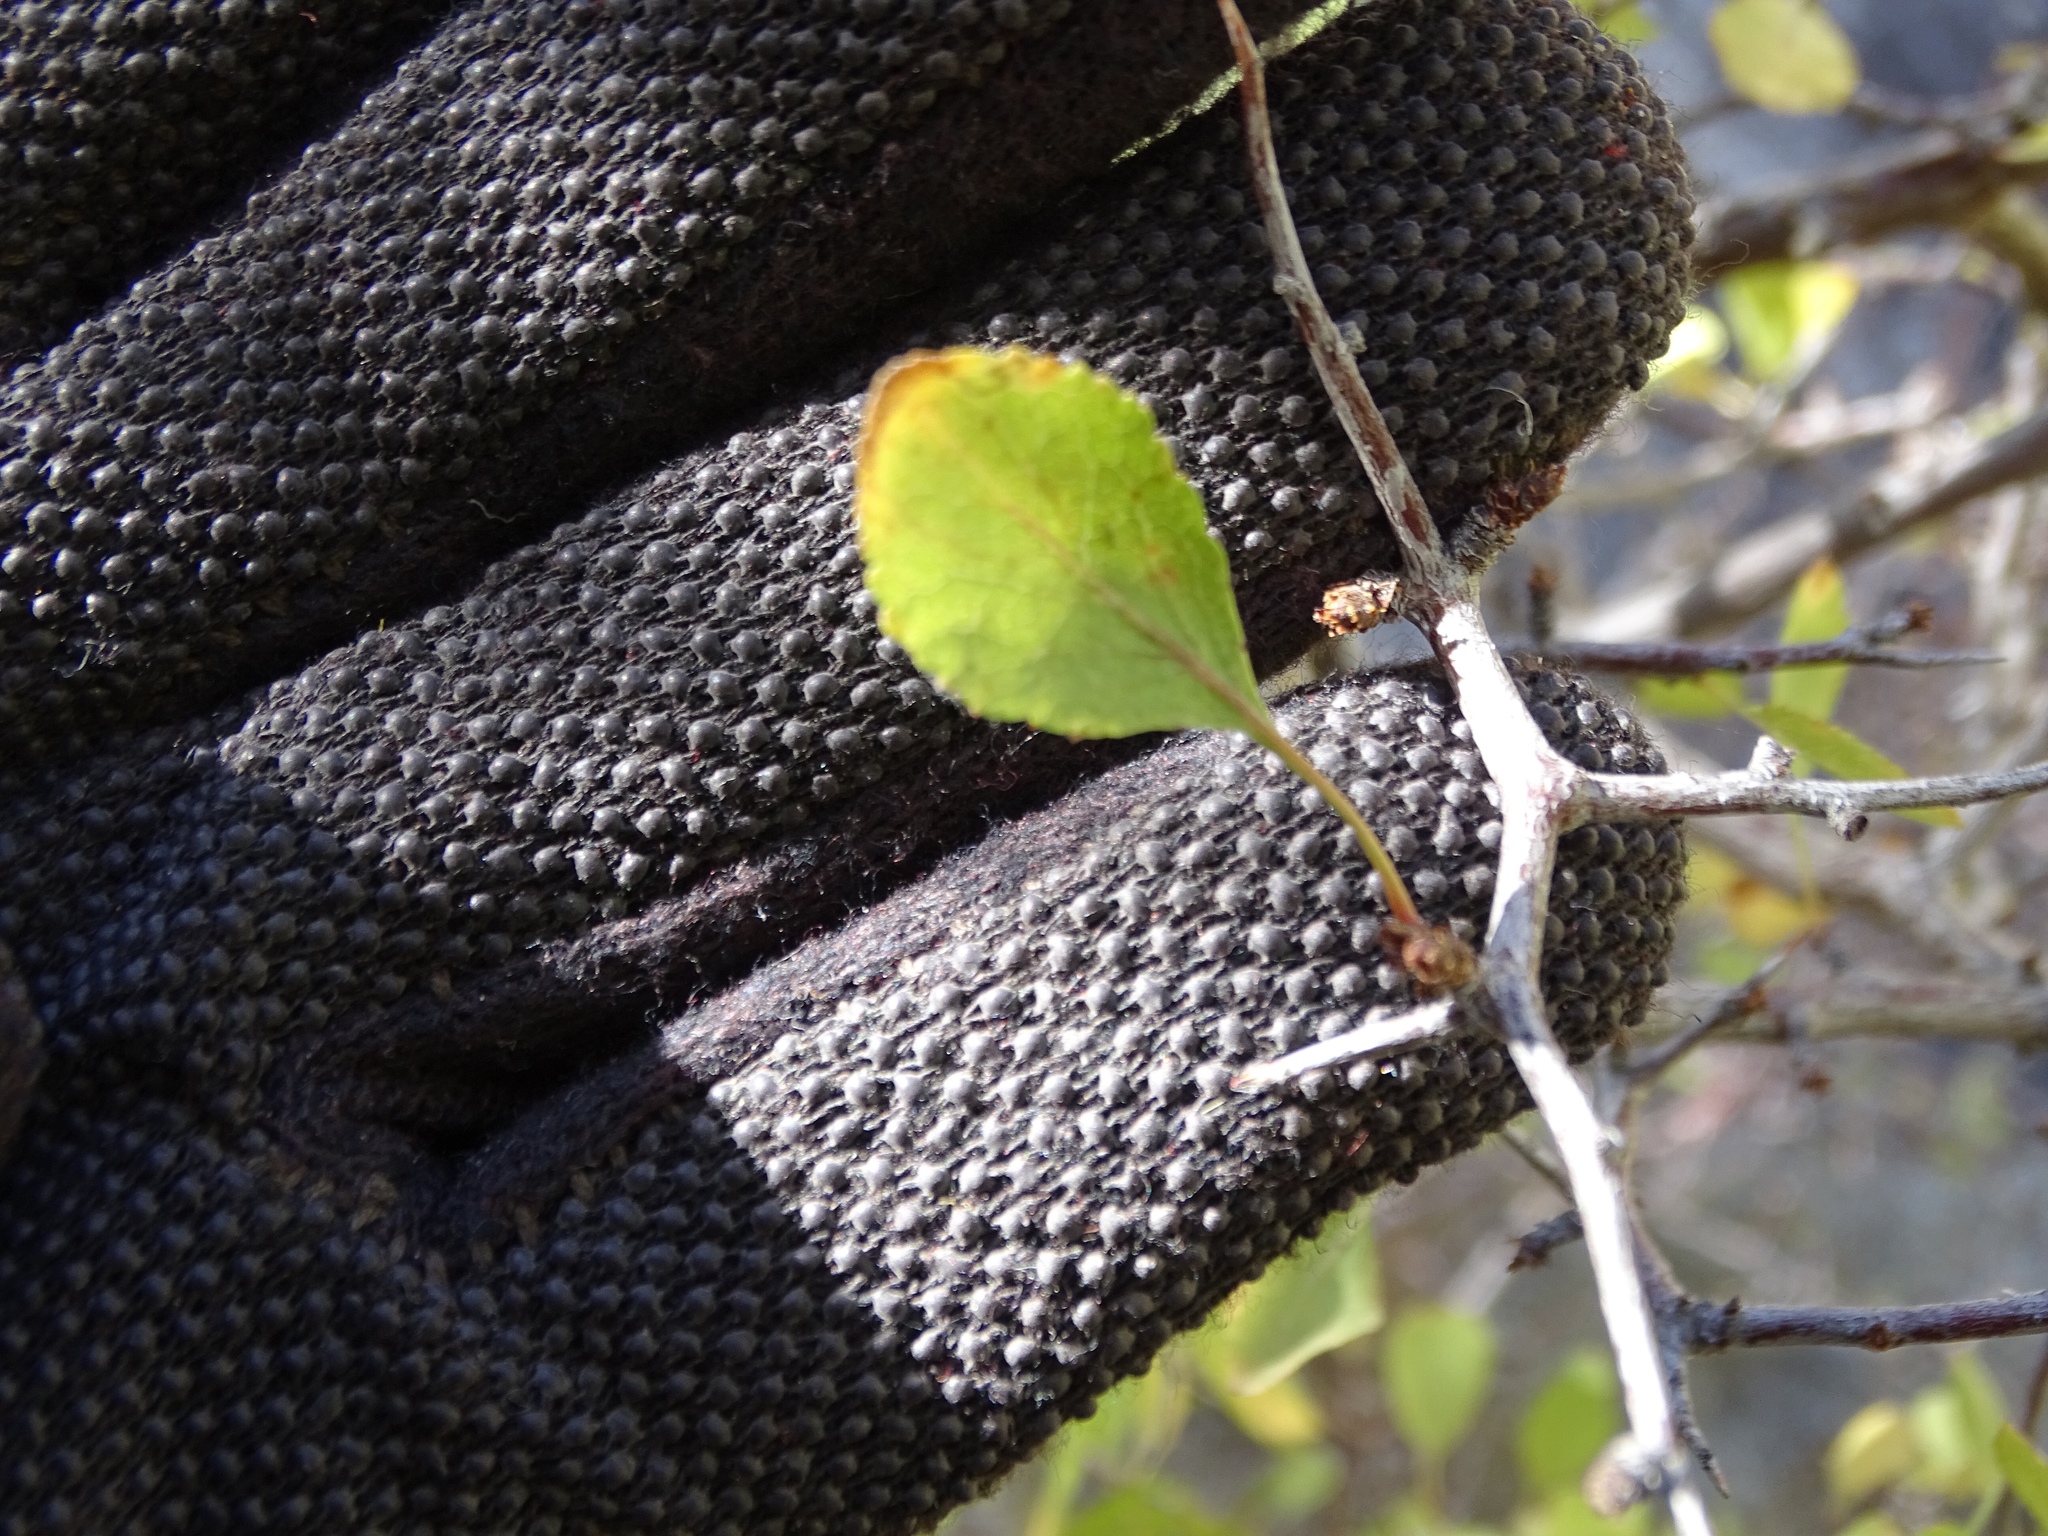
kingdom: Plantae
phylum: Tracheophyta
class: Magnoliopsida
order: Rosales
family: Rosaceae
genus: Prunus
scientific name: Prunus fremontii
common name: Desert apricot
